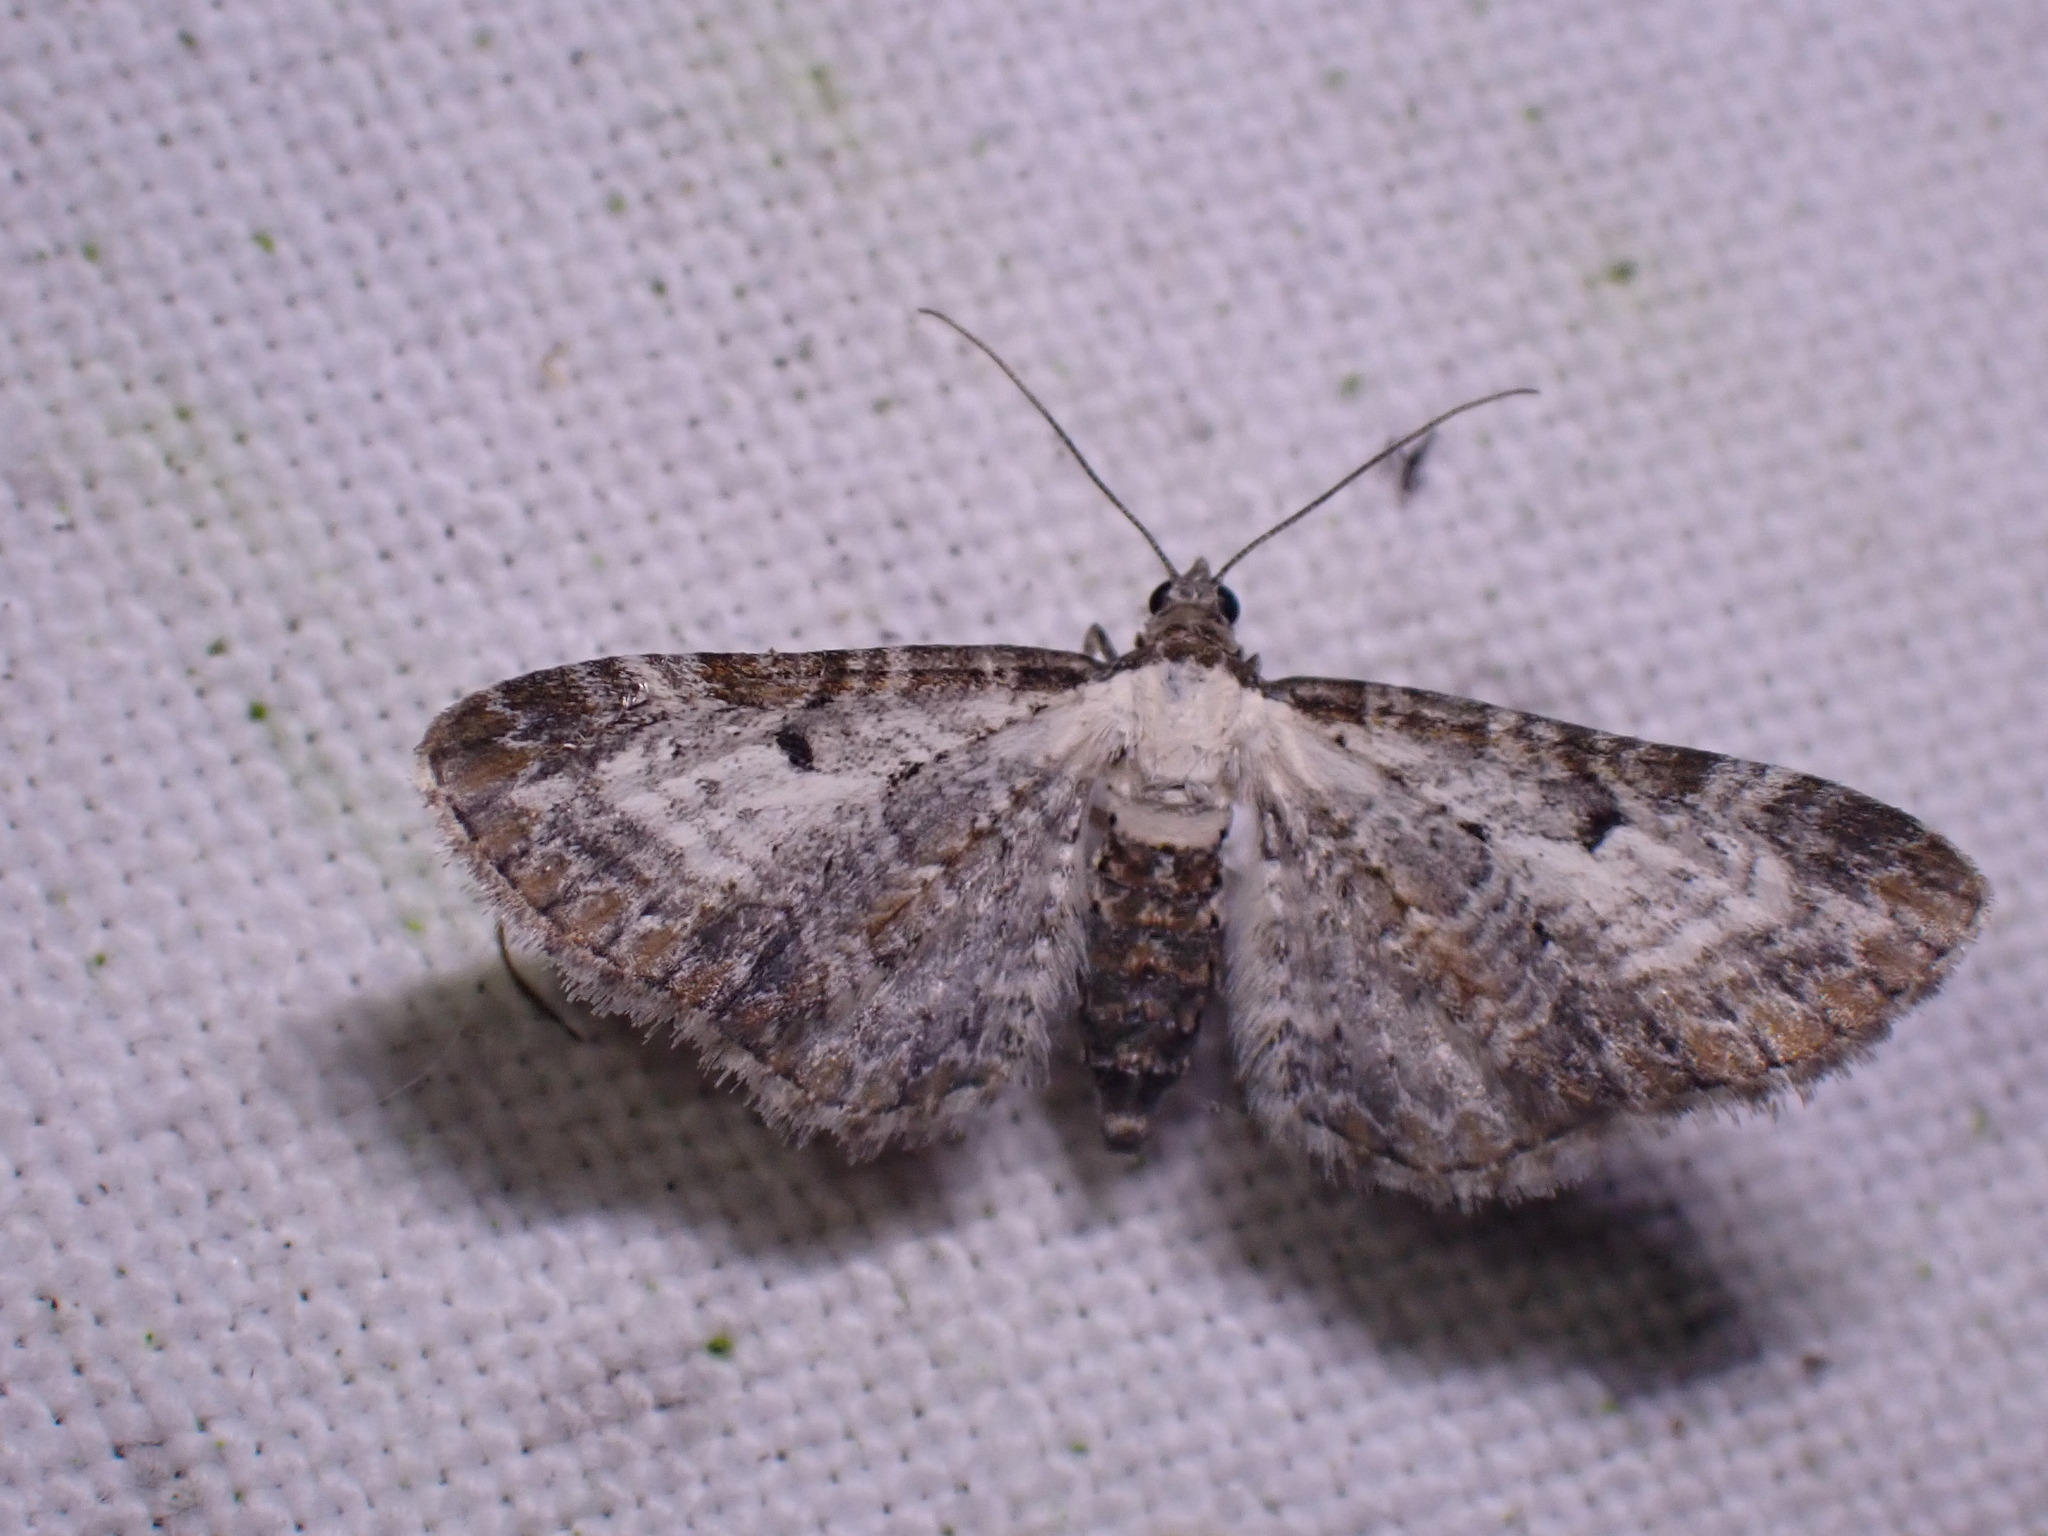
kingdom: Animalia
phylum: Arthropoda
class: Insecta
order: Lepidoptera
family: Geometridae
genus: Eupithecia
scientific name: Eupithecia succenturiata
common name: Bordered pug
